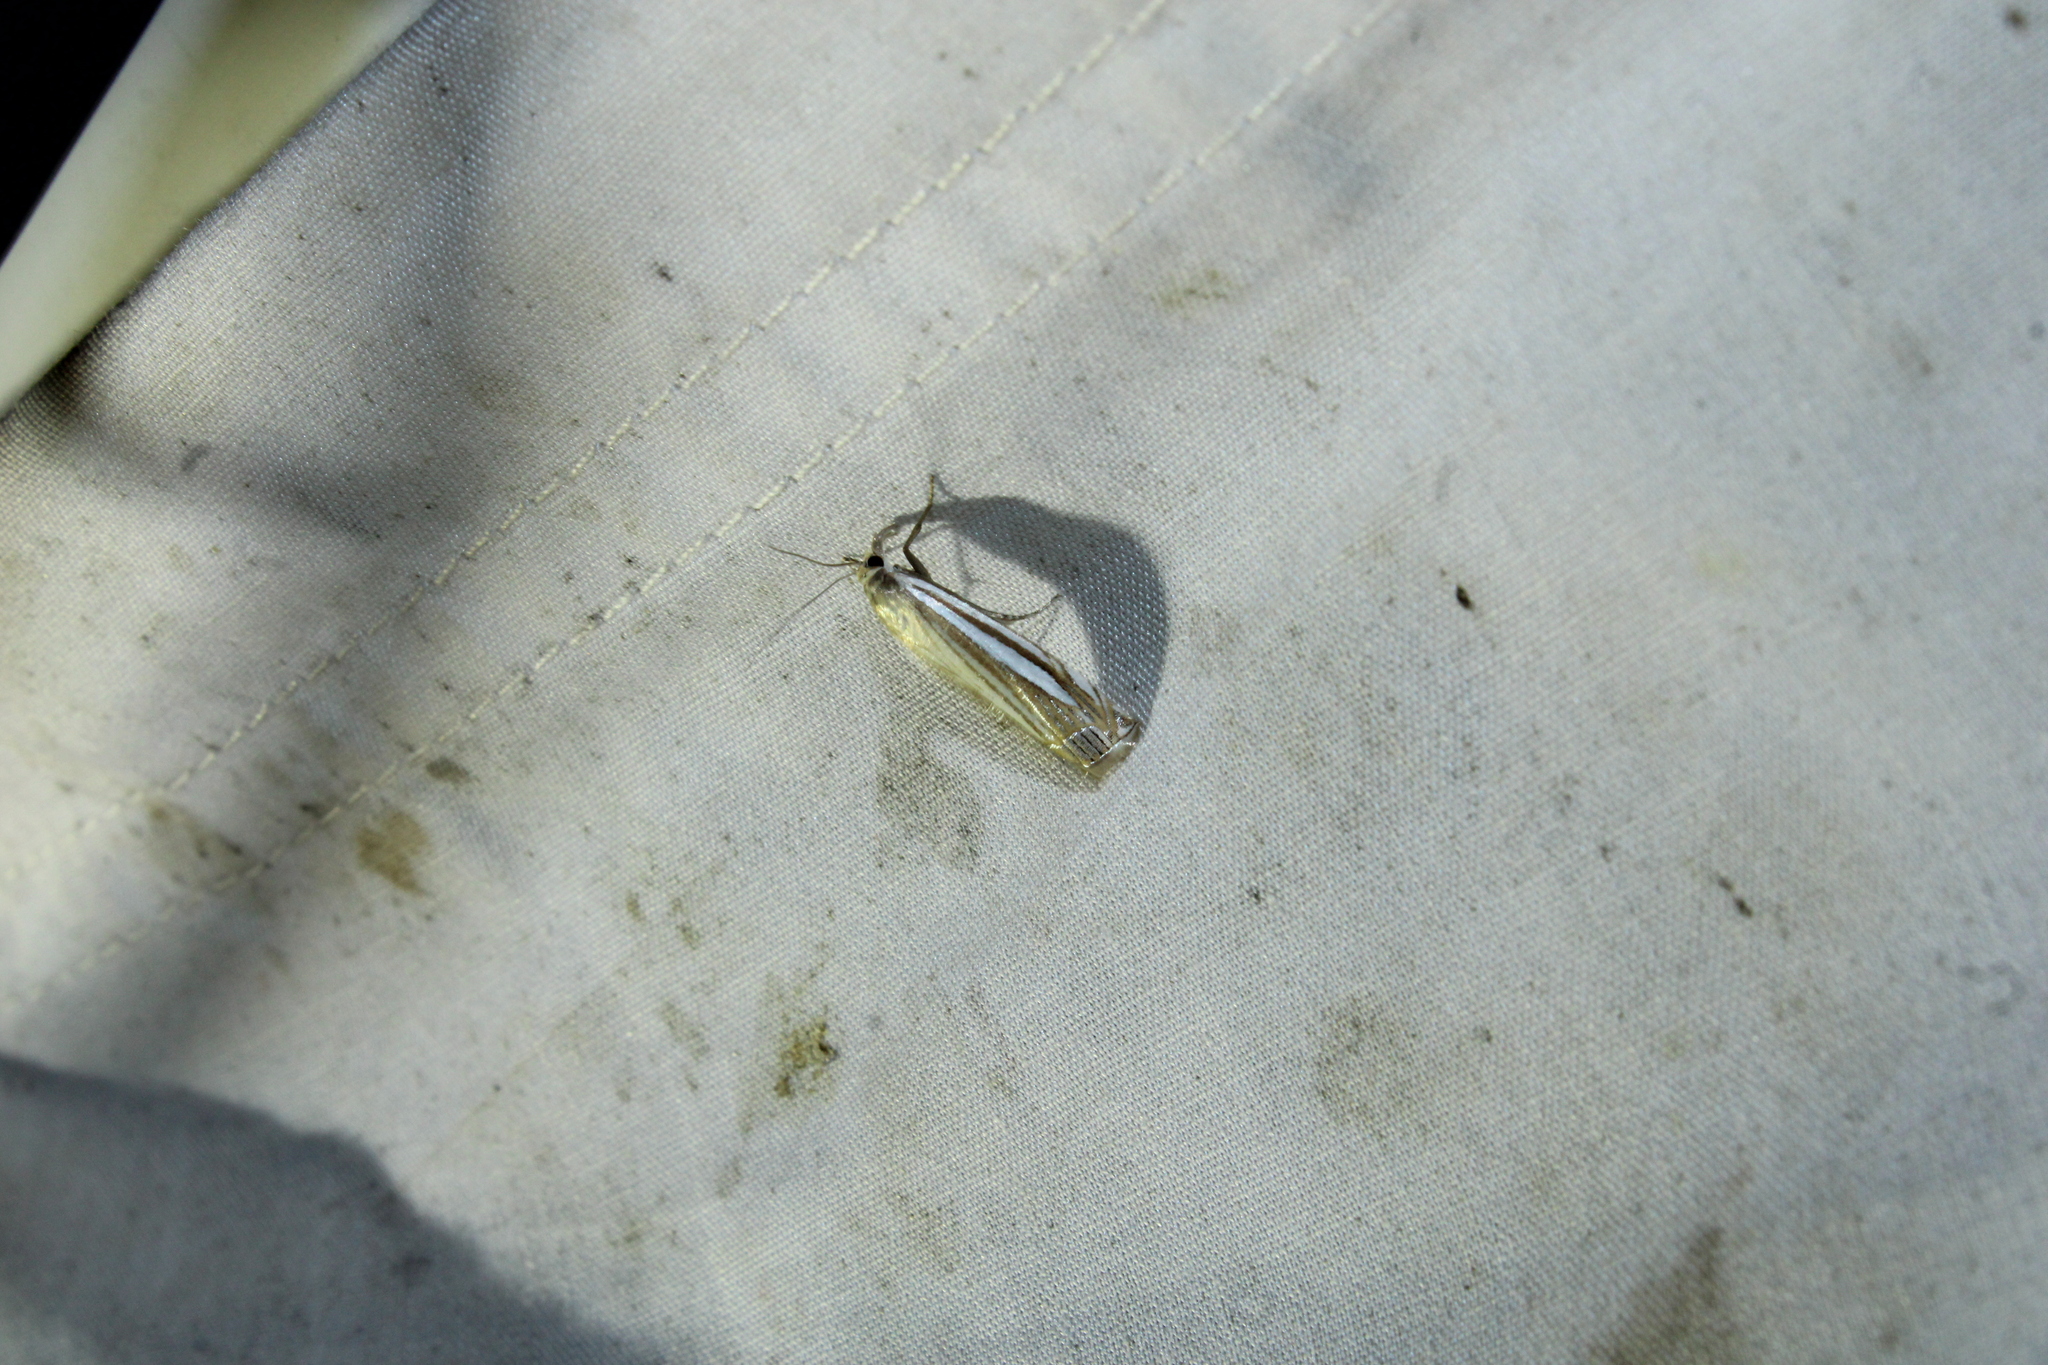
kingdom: Animalia
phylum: Arthropoda
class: Insecta
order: Lepidoptera
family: Crambidae
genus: Crambus
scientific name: Crambus laqueatellus
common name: Eastern grass-veneer
